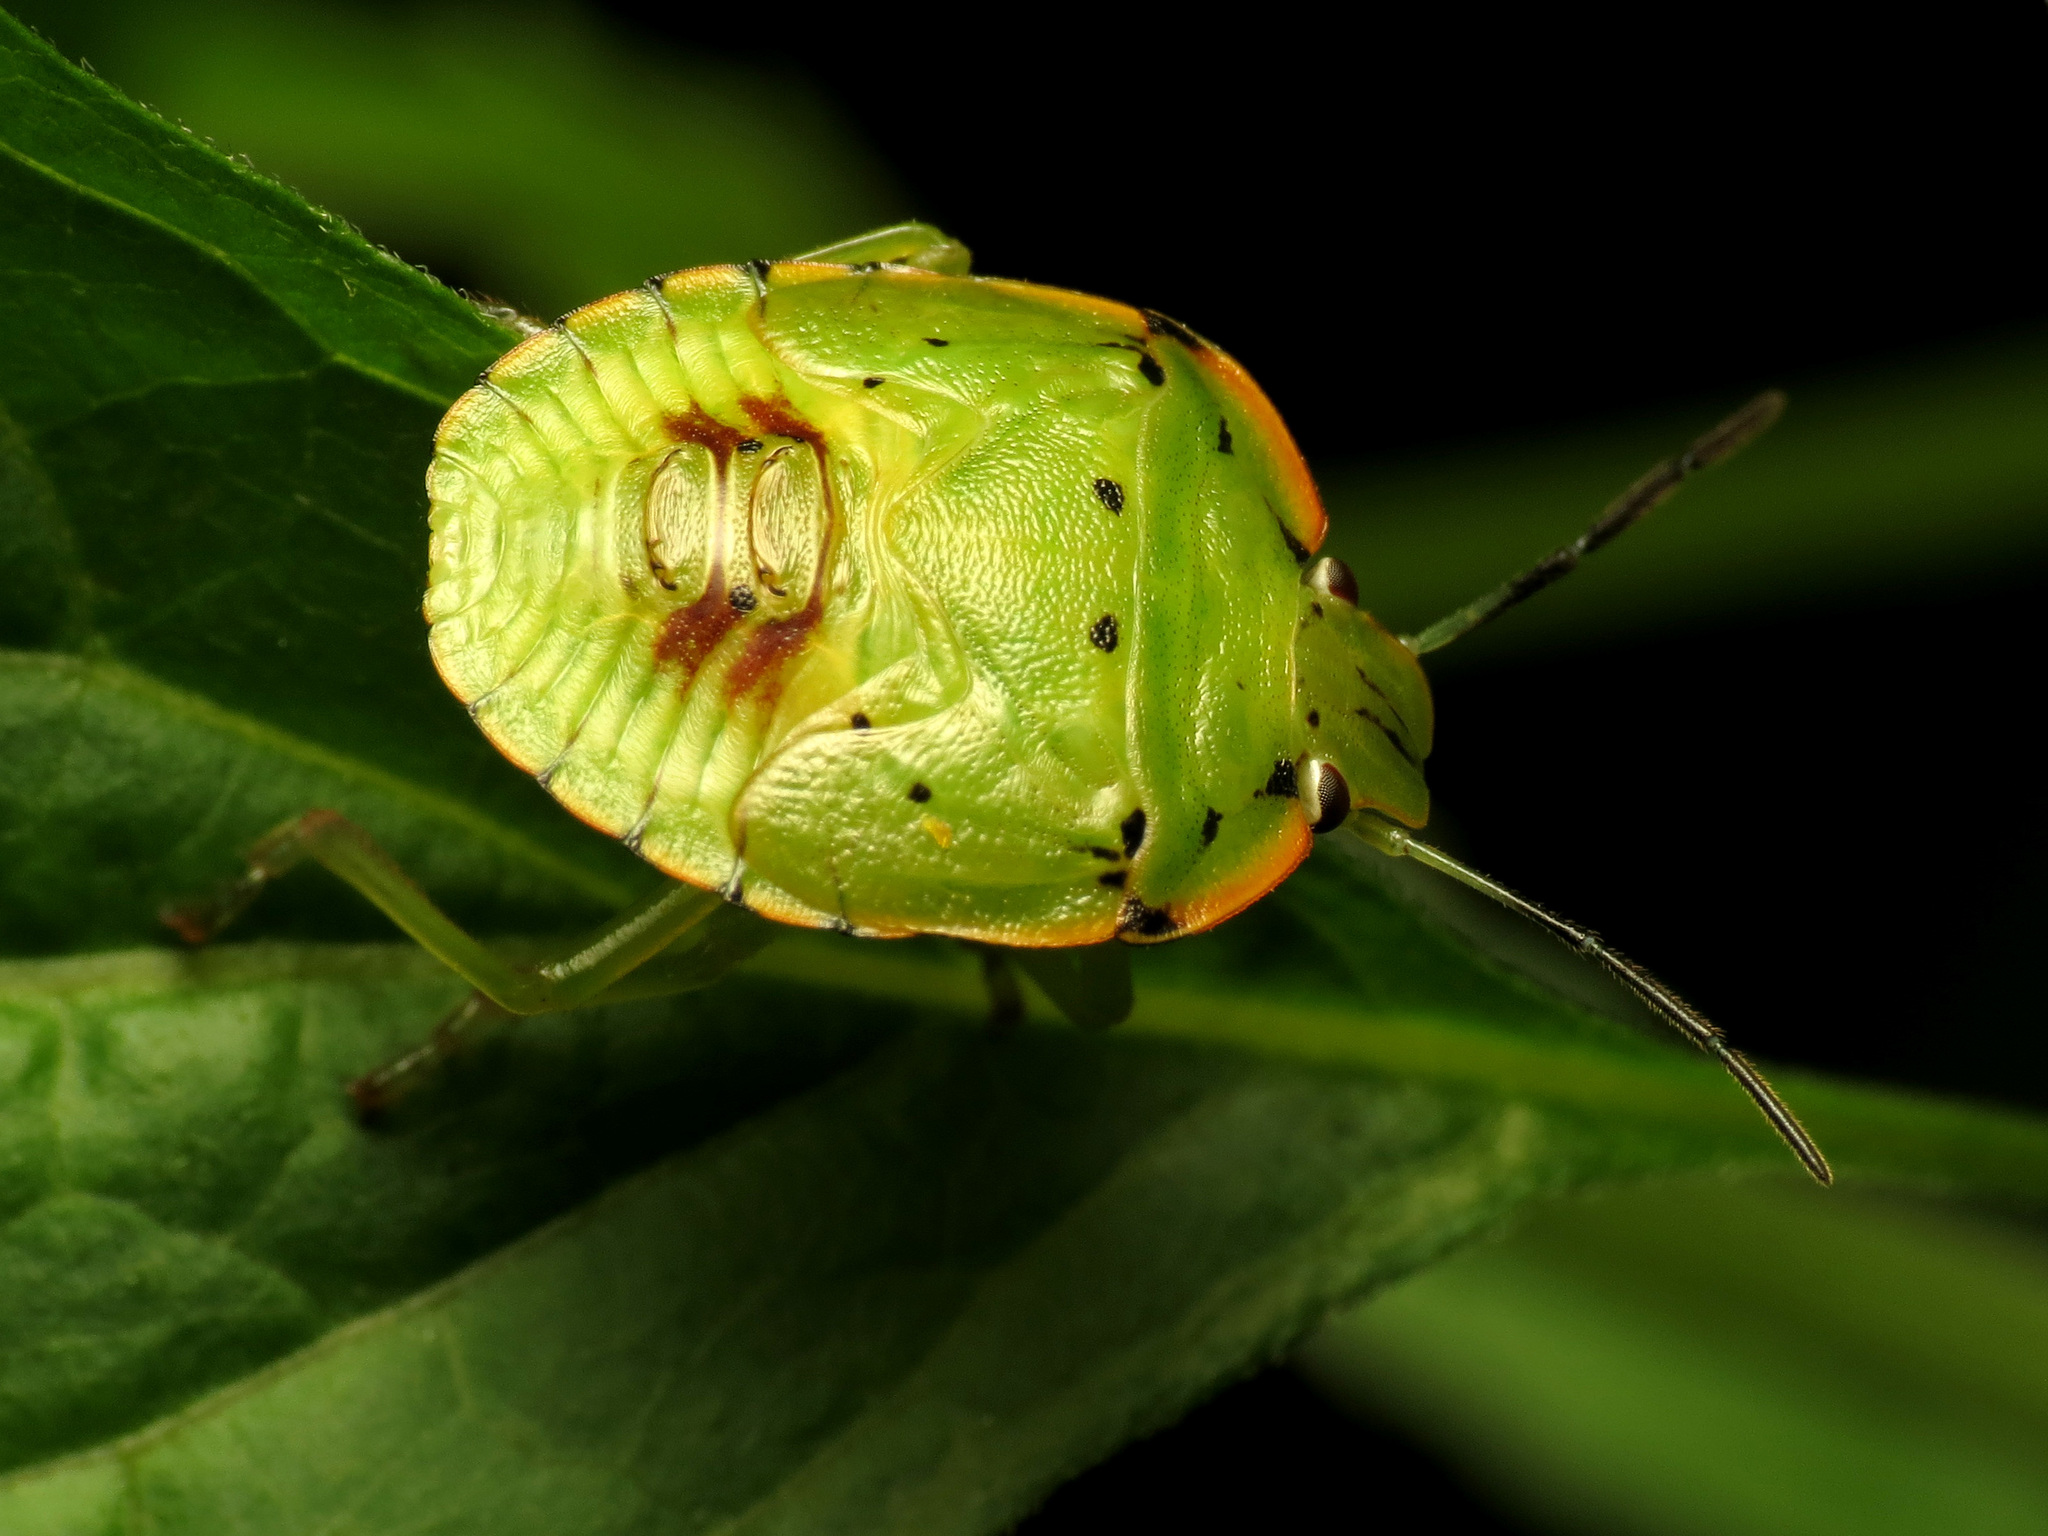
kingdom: Animalia
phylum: Arthropoda
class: Insecta
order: Hemiptera
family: Pentatomidae
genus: Chinavia
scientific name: Chinavia hilaris
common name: Green stink bug
